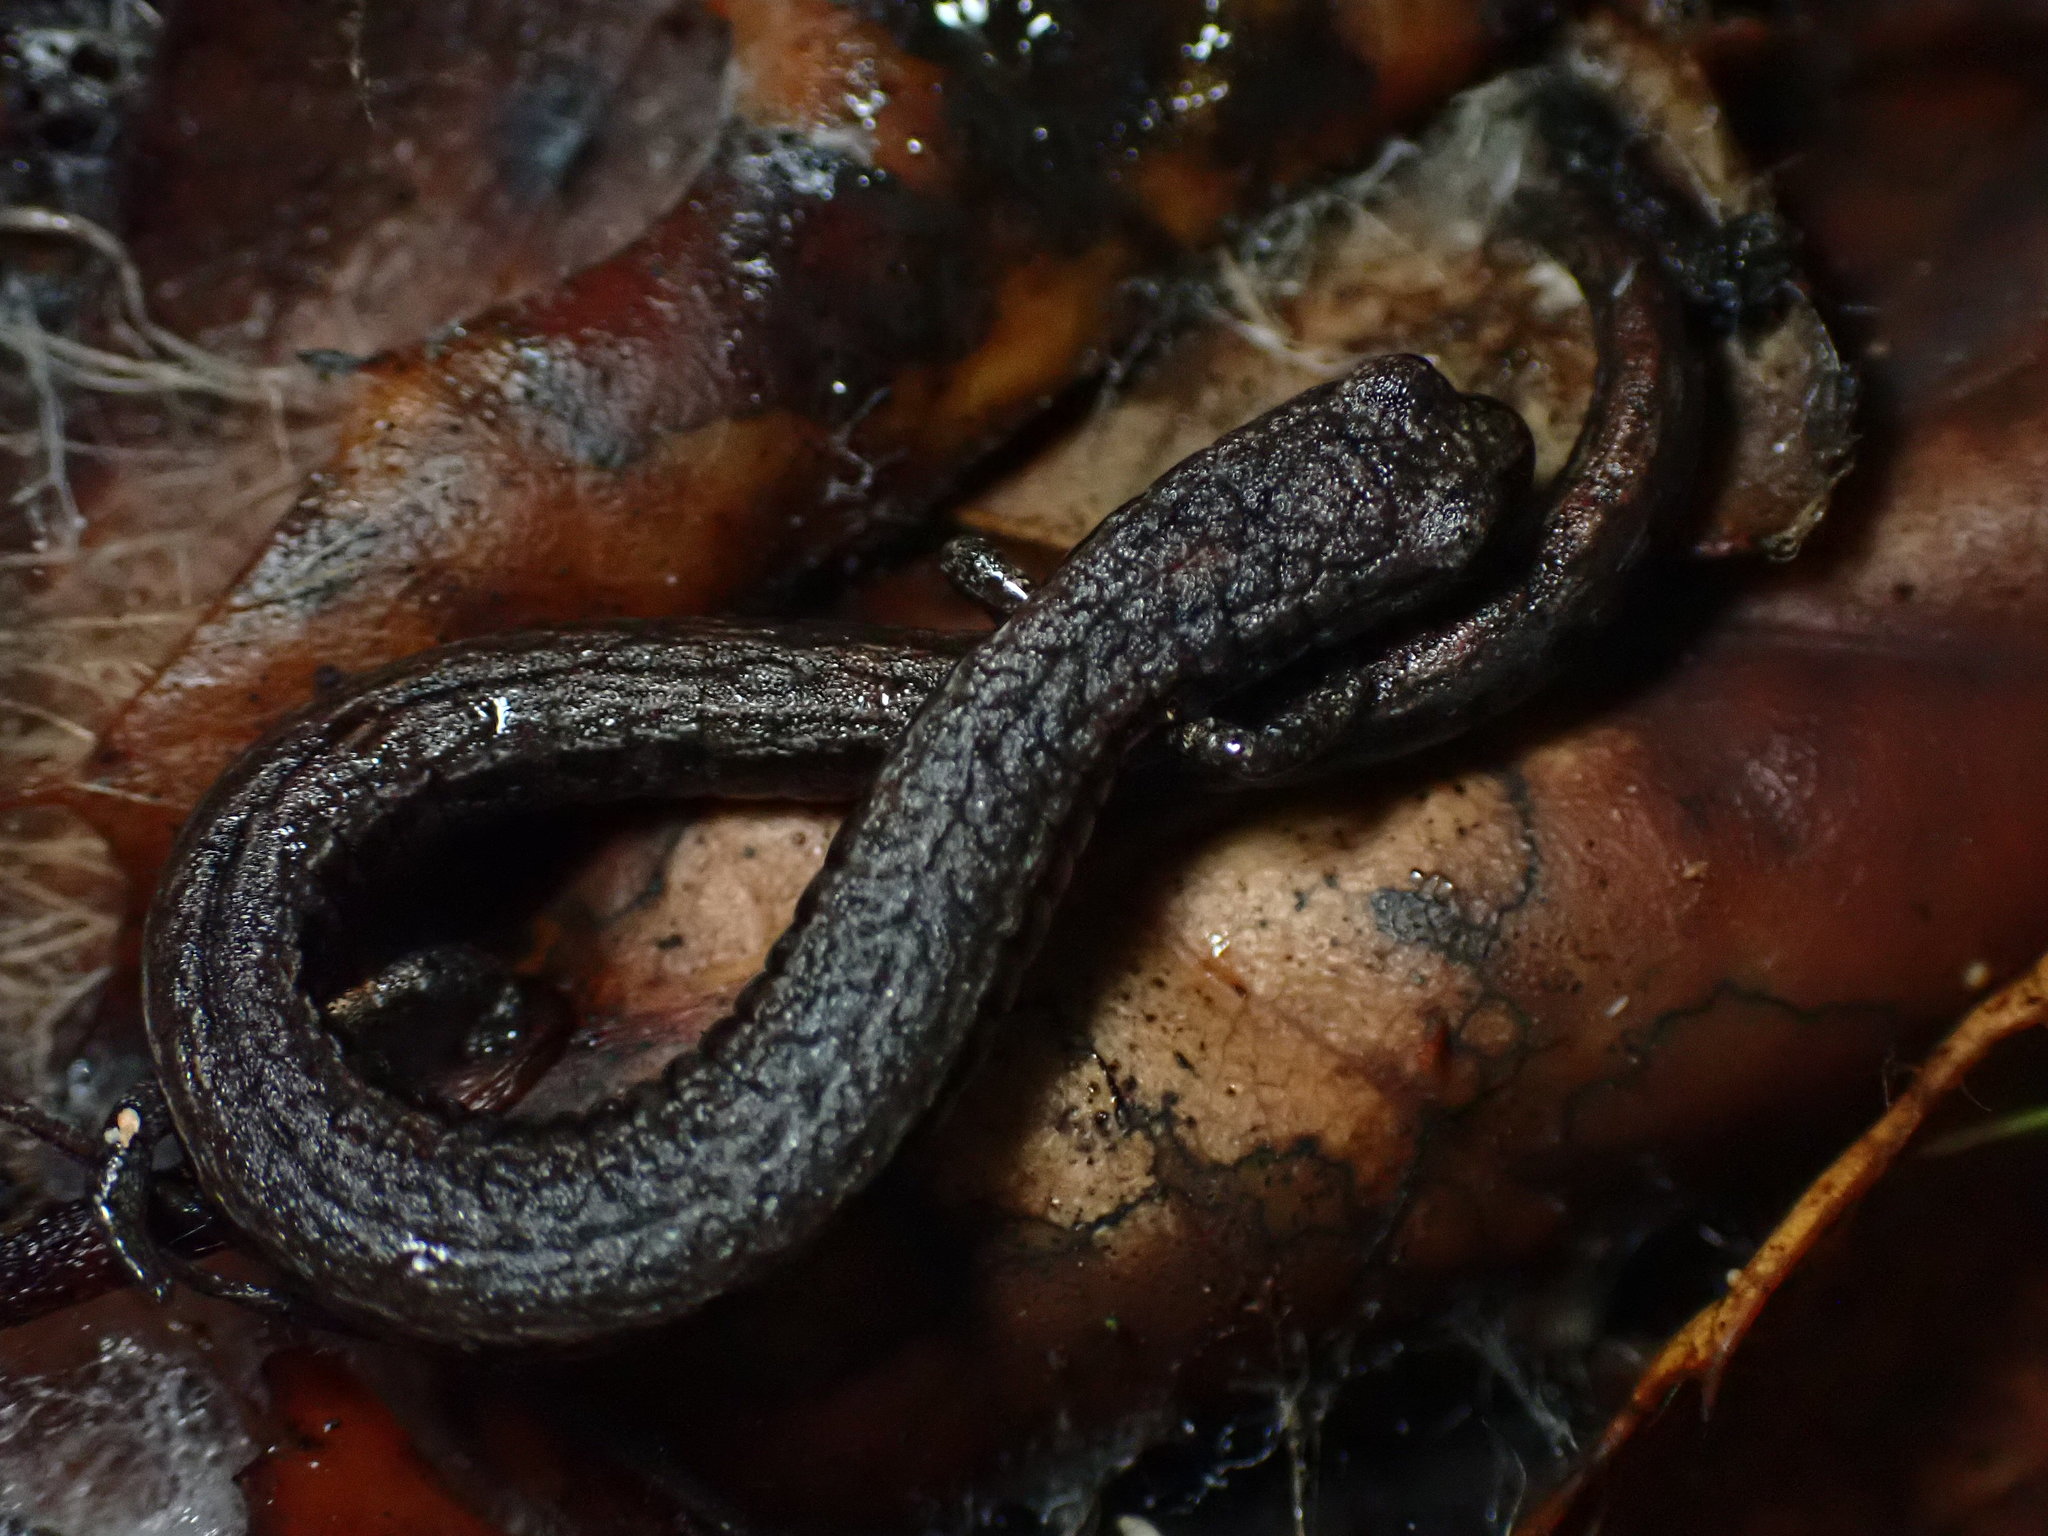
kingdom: Animalia
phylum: Chordata
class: Amphibia
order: Caudata
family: Plethodontidae
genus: Batrachoseps
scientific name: Batrachoseps attenuatus
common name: California slender salamander
